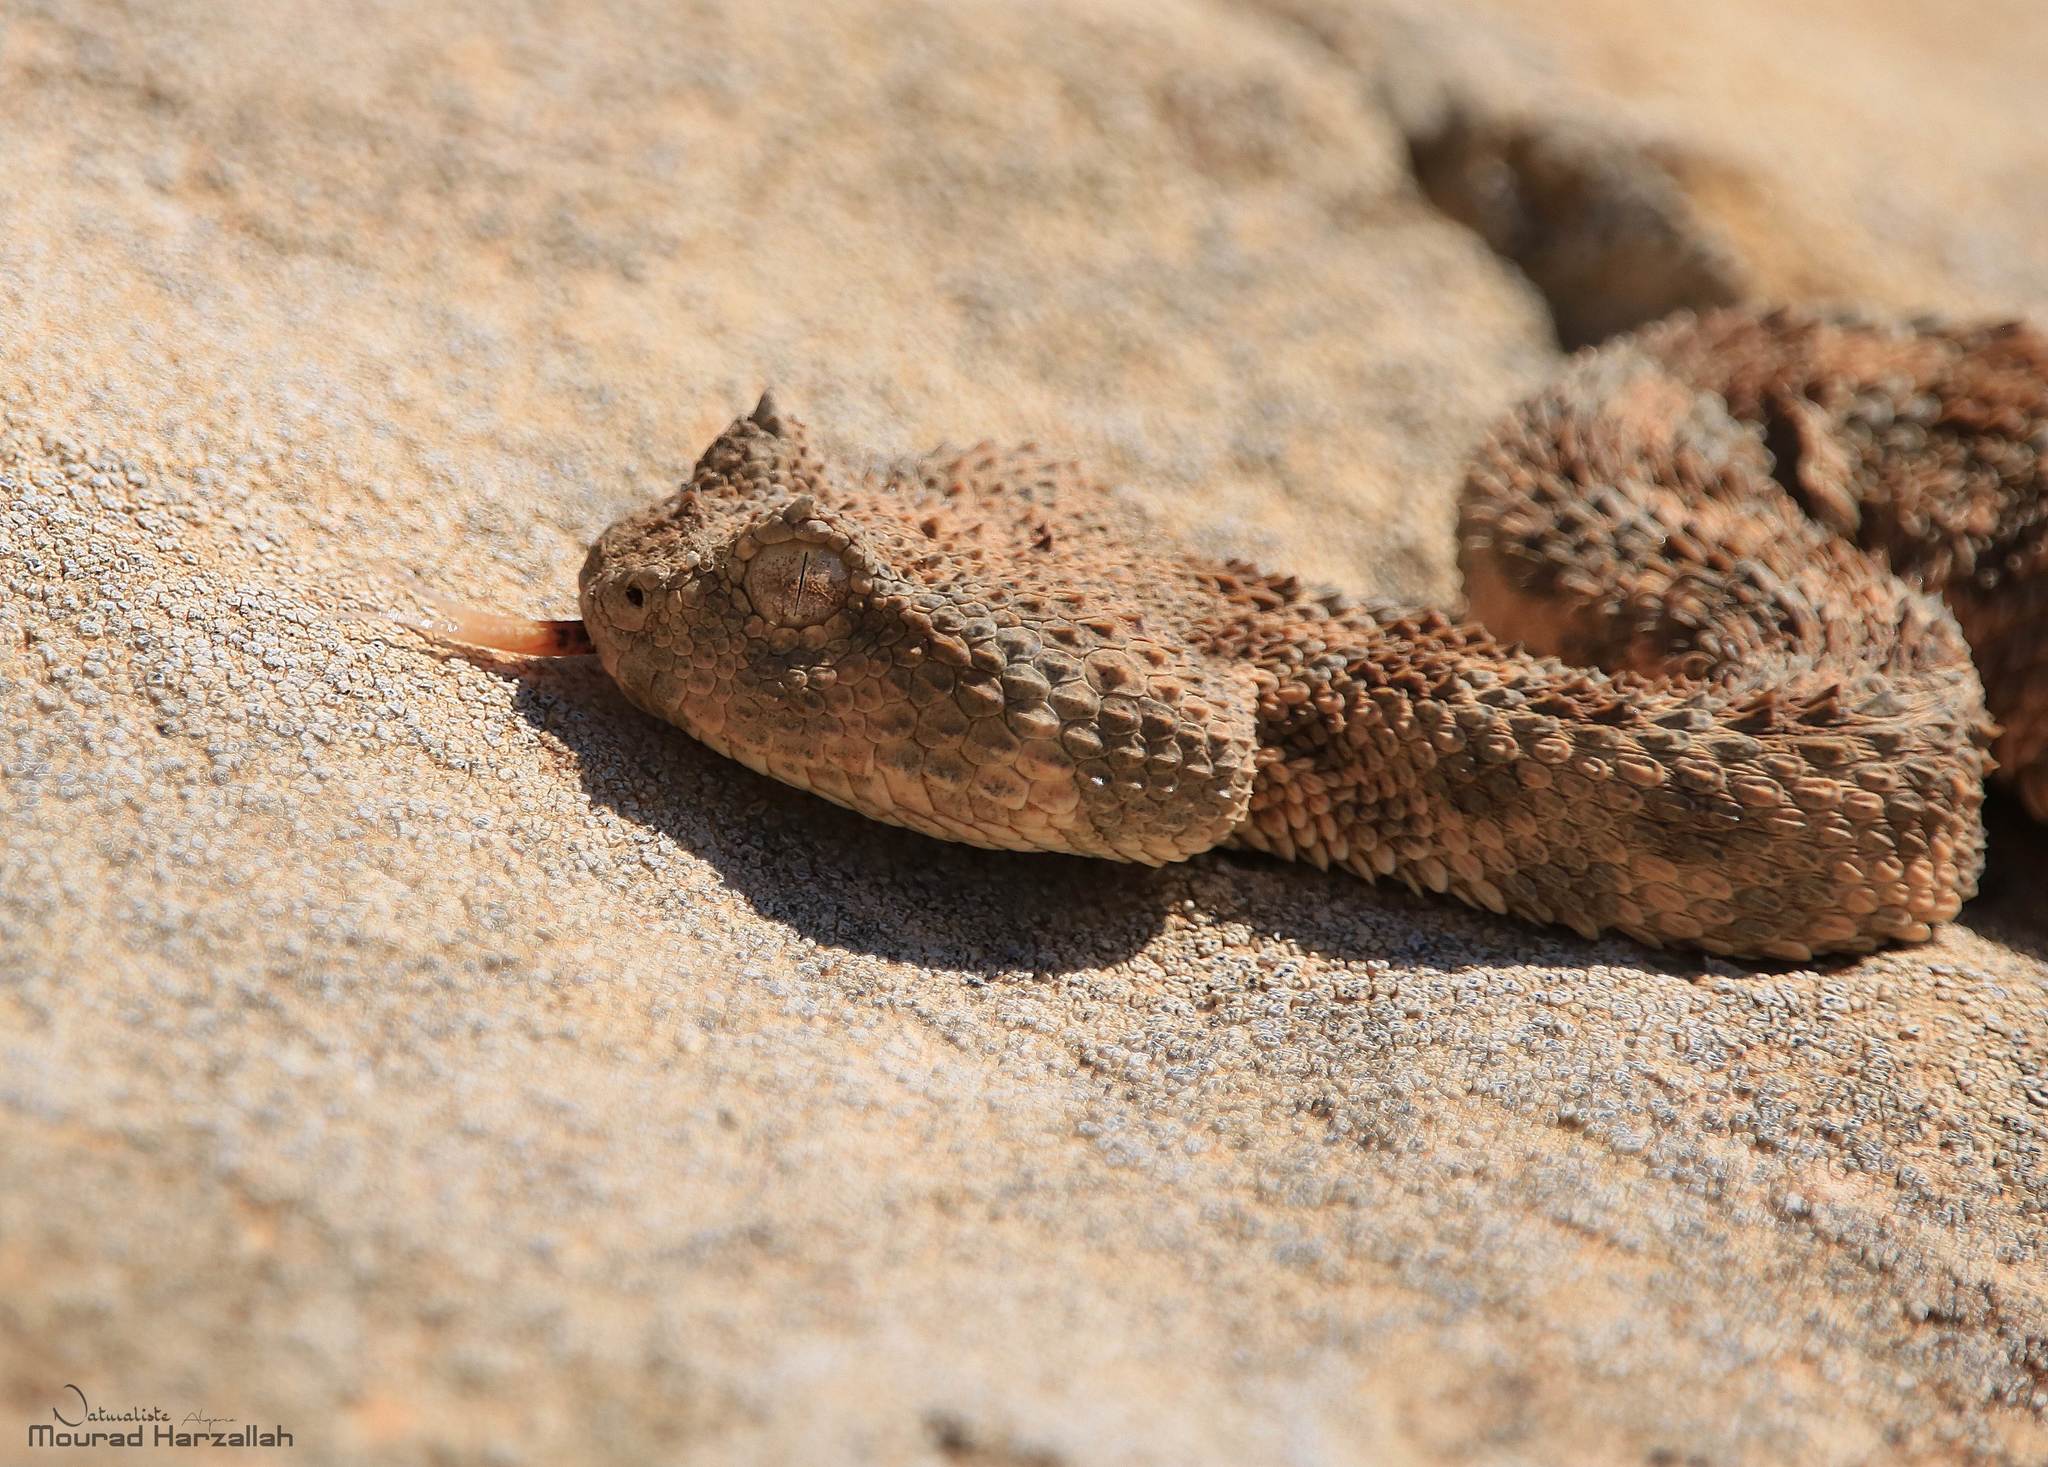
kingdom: Animalia
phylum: Chordata
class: Squamata
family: Viperidae
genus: Cerastes
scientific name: Cerastes cerastes
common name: Desert horned viper
